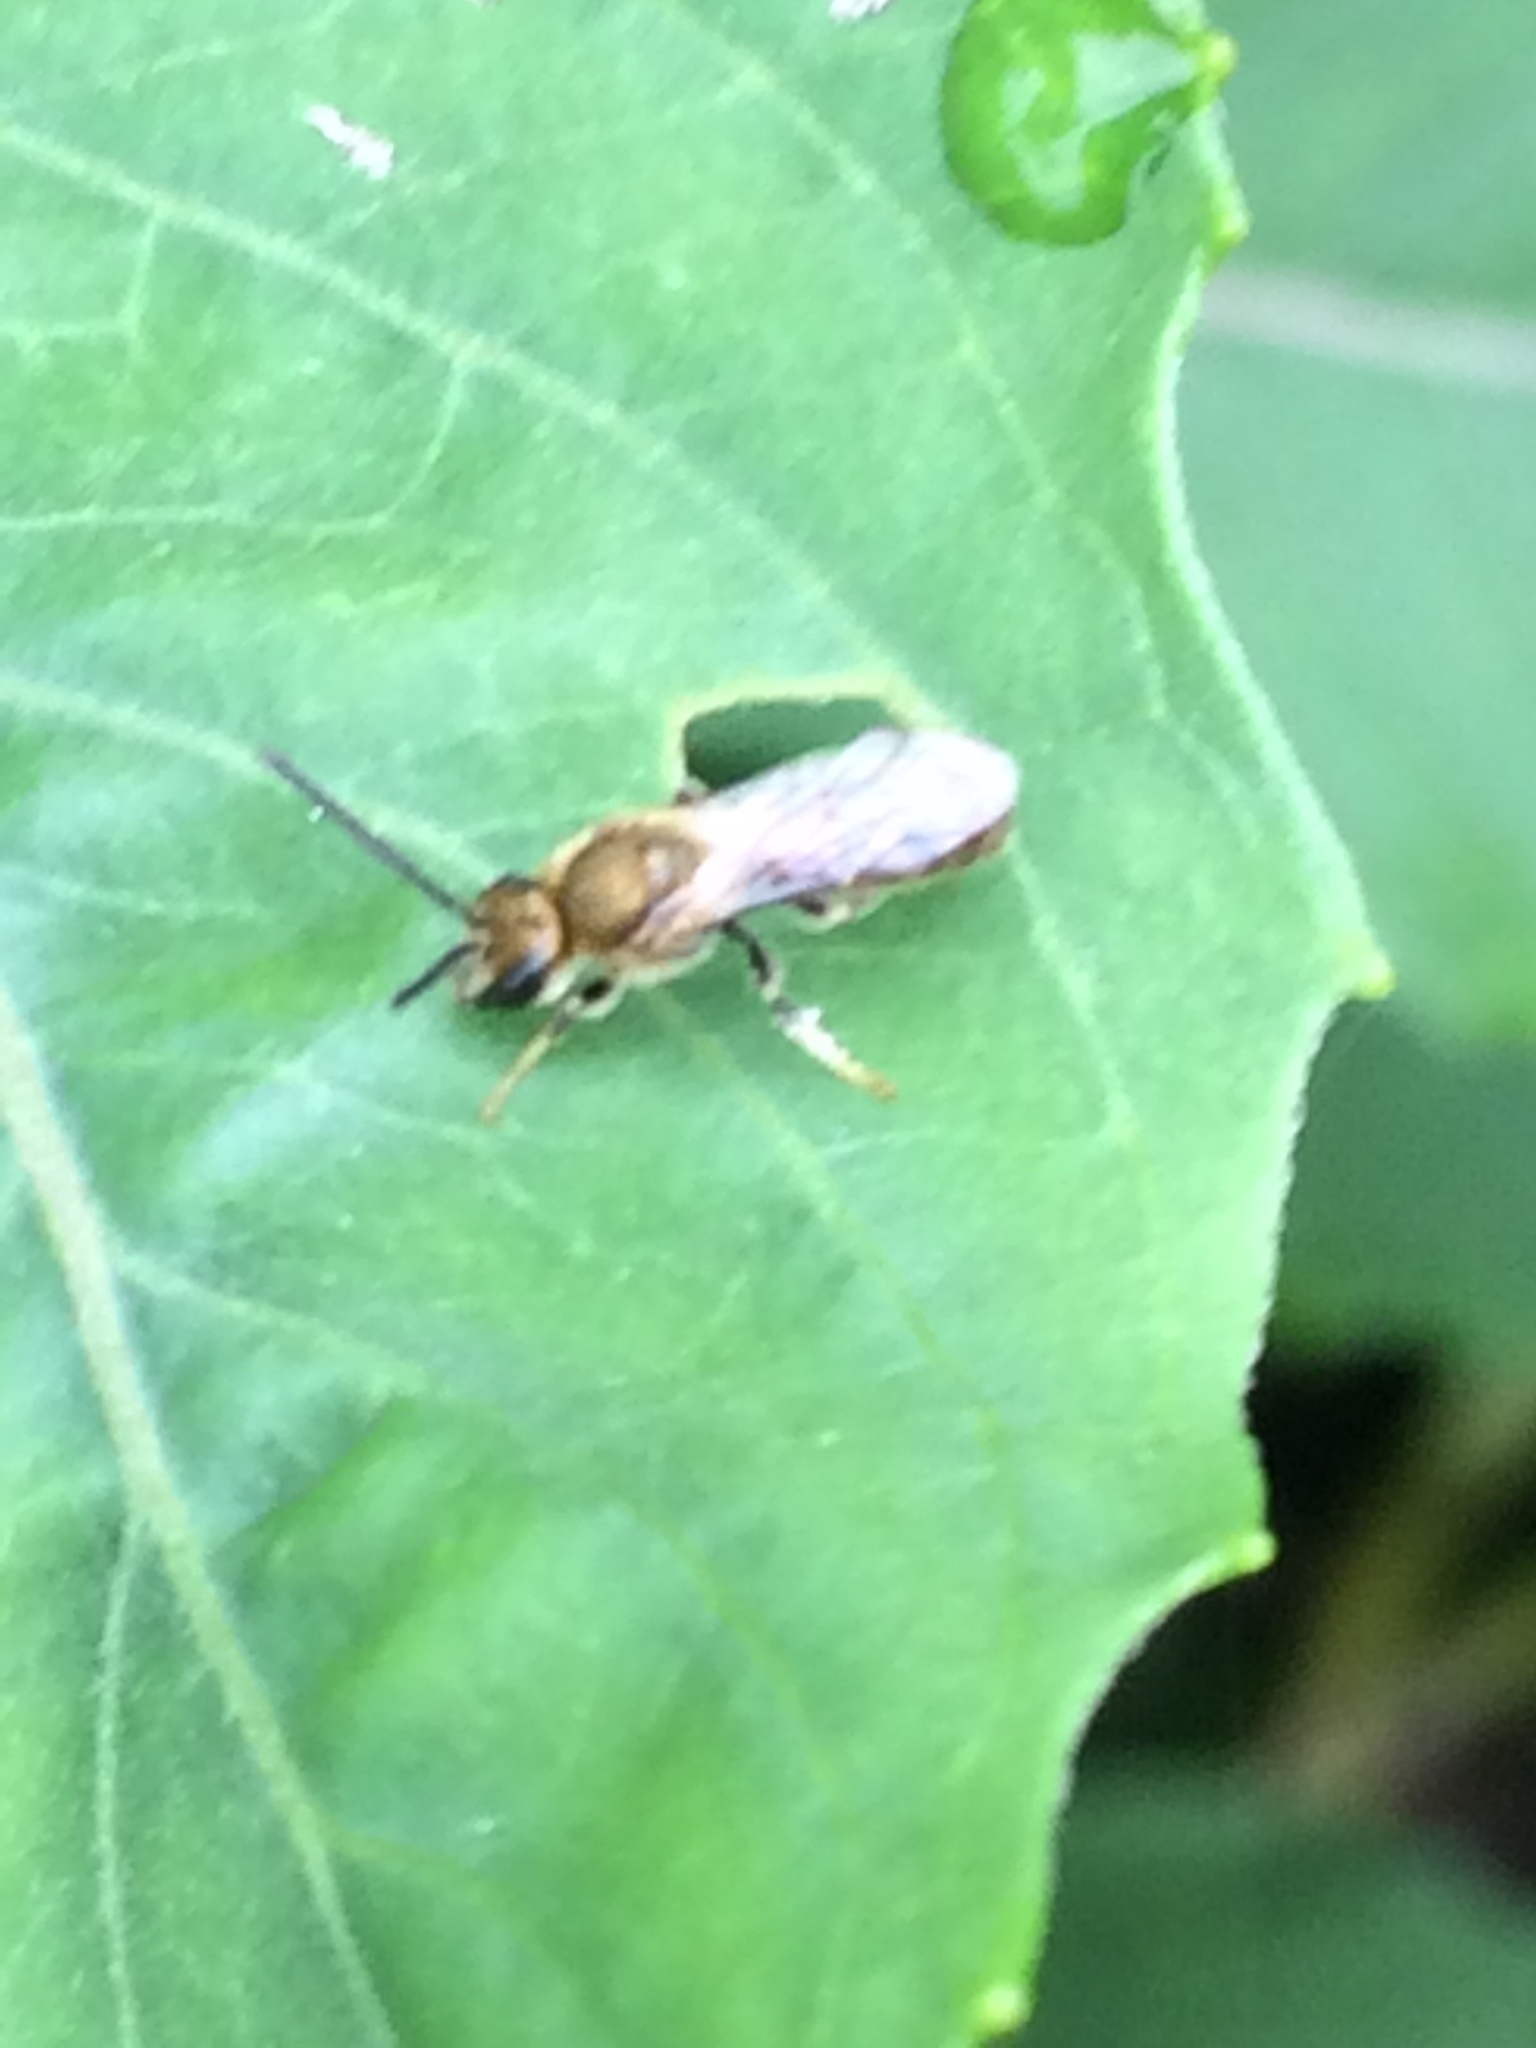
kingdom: Animalia
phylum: Arthropoda
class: Insecta
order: Hymenoptera
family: Halictidae
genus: Dialictus
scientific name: Dialictus
